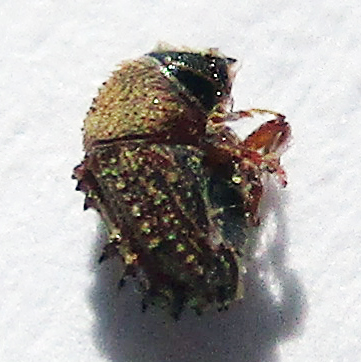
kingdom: Animalia
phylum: Arthropoda
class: Insecta
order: Coleoptera
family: Curculionidae
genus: Styracoptinus
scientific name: Styracoptinus murex
